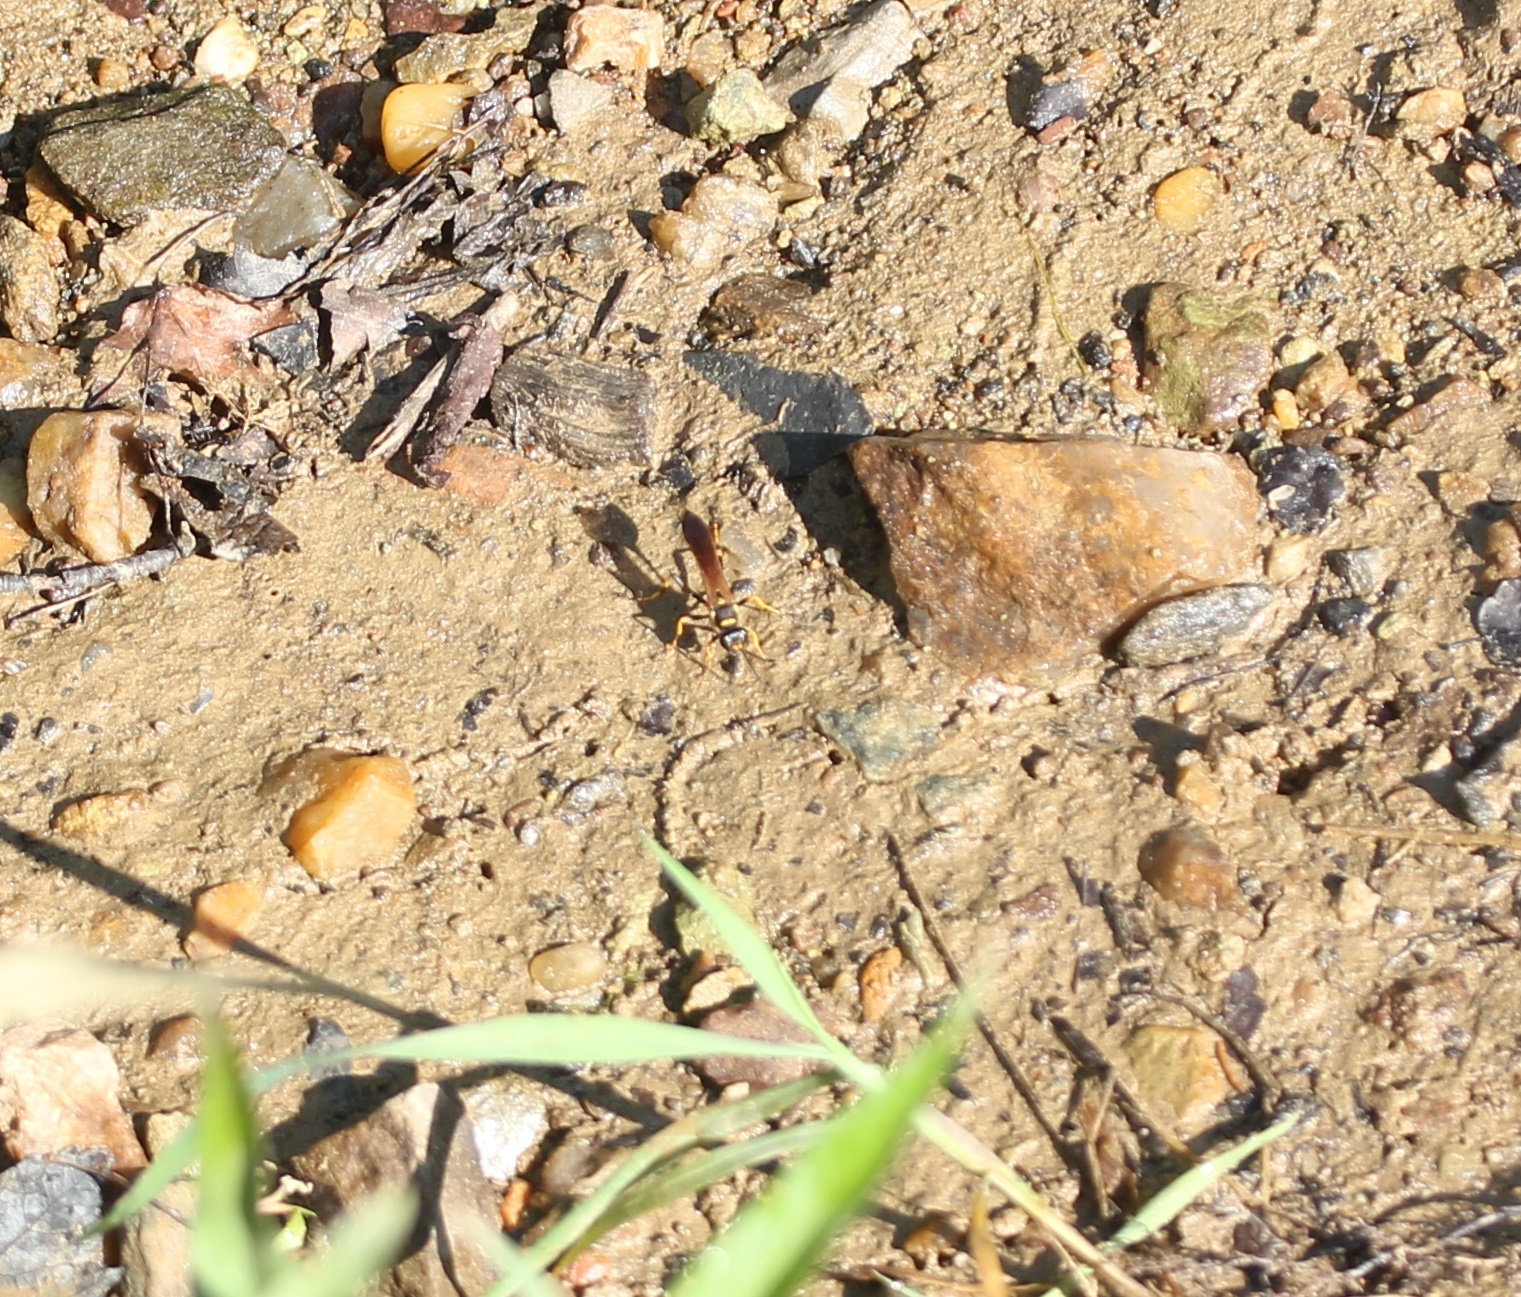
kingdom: Animalia
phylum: Arthropoda
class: Insecta
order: Hymenoptera
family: Sphecidae
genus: Sceliphron
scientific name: Sceliphron caementarium
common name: Mud dauber
